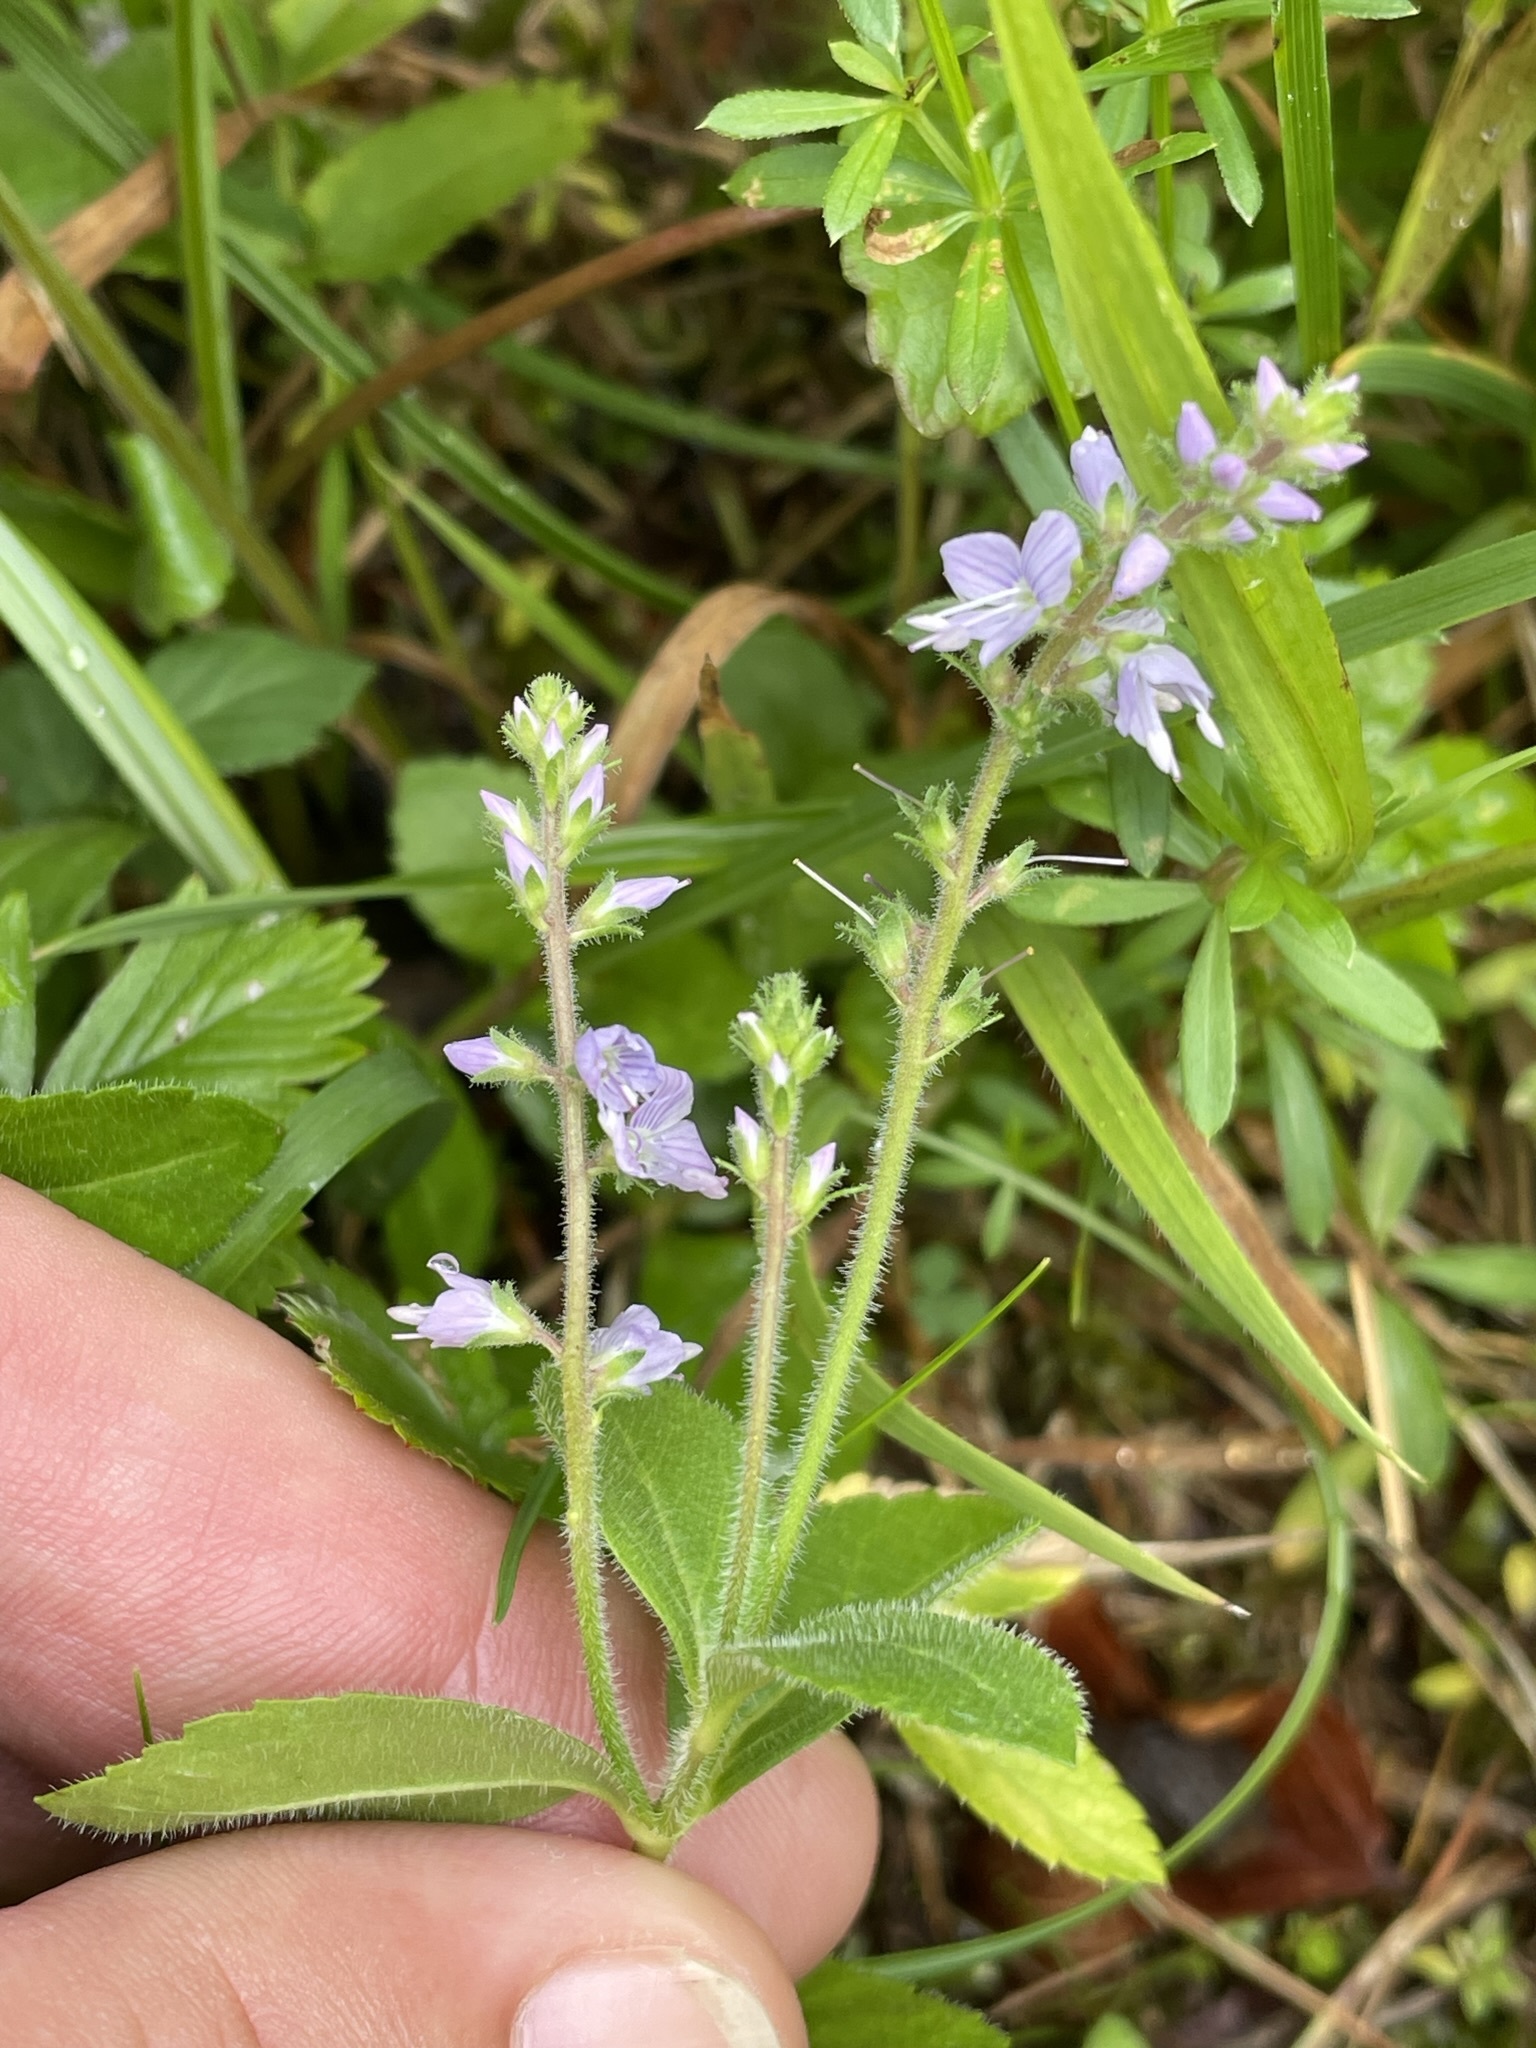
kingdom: Plantae
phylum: Tracheophyta
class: Magnoliopsida
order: Lamiales
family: Plantaginaceae
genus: Veronica
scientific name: Veronica officinalis
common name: Common speedwell
